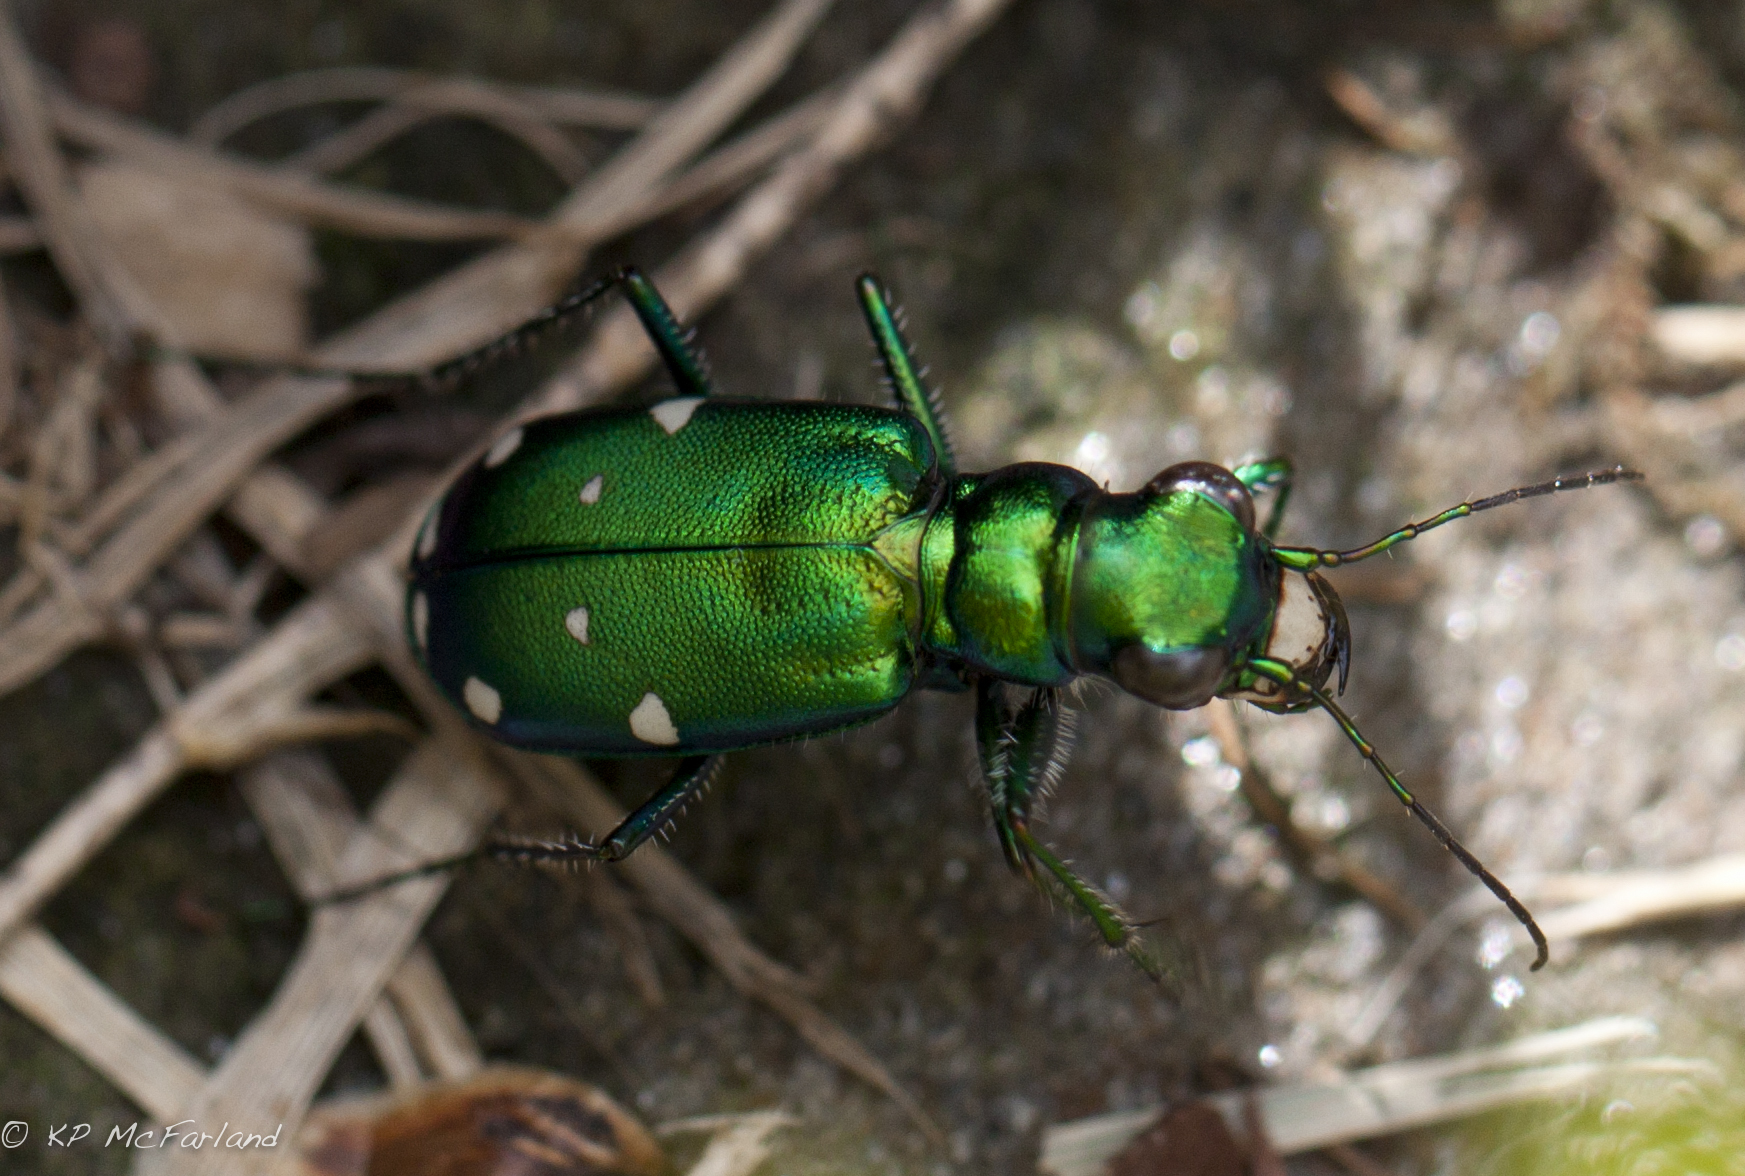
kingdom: Animalia
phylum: Arthropoda
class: Insecta
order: Coleoptera
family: Carabidae
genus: Cicindela
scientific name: Cicindela sexguttata
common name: Six-spotted tiger beetle
